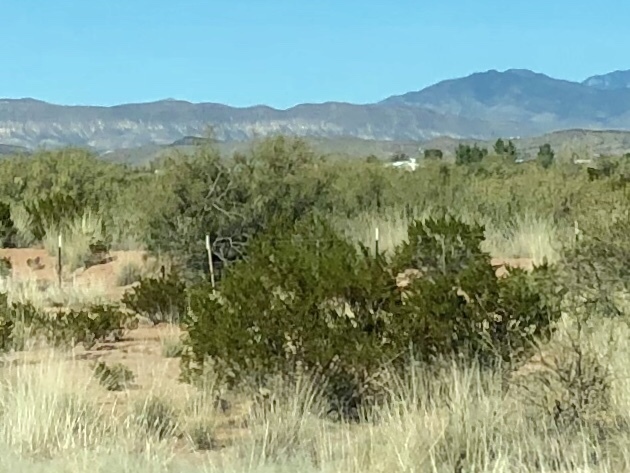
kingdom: Plantae
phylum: Tracheophyta
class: Magnoliopsida
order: Zygophyllales
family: Zygophyllaceae
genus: Larrea
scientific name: Larrea tridentata
